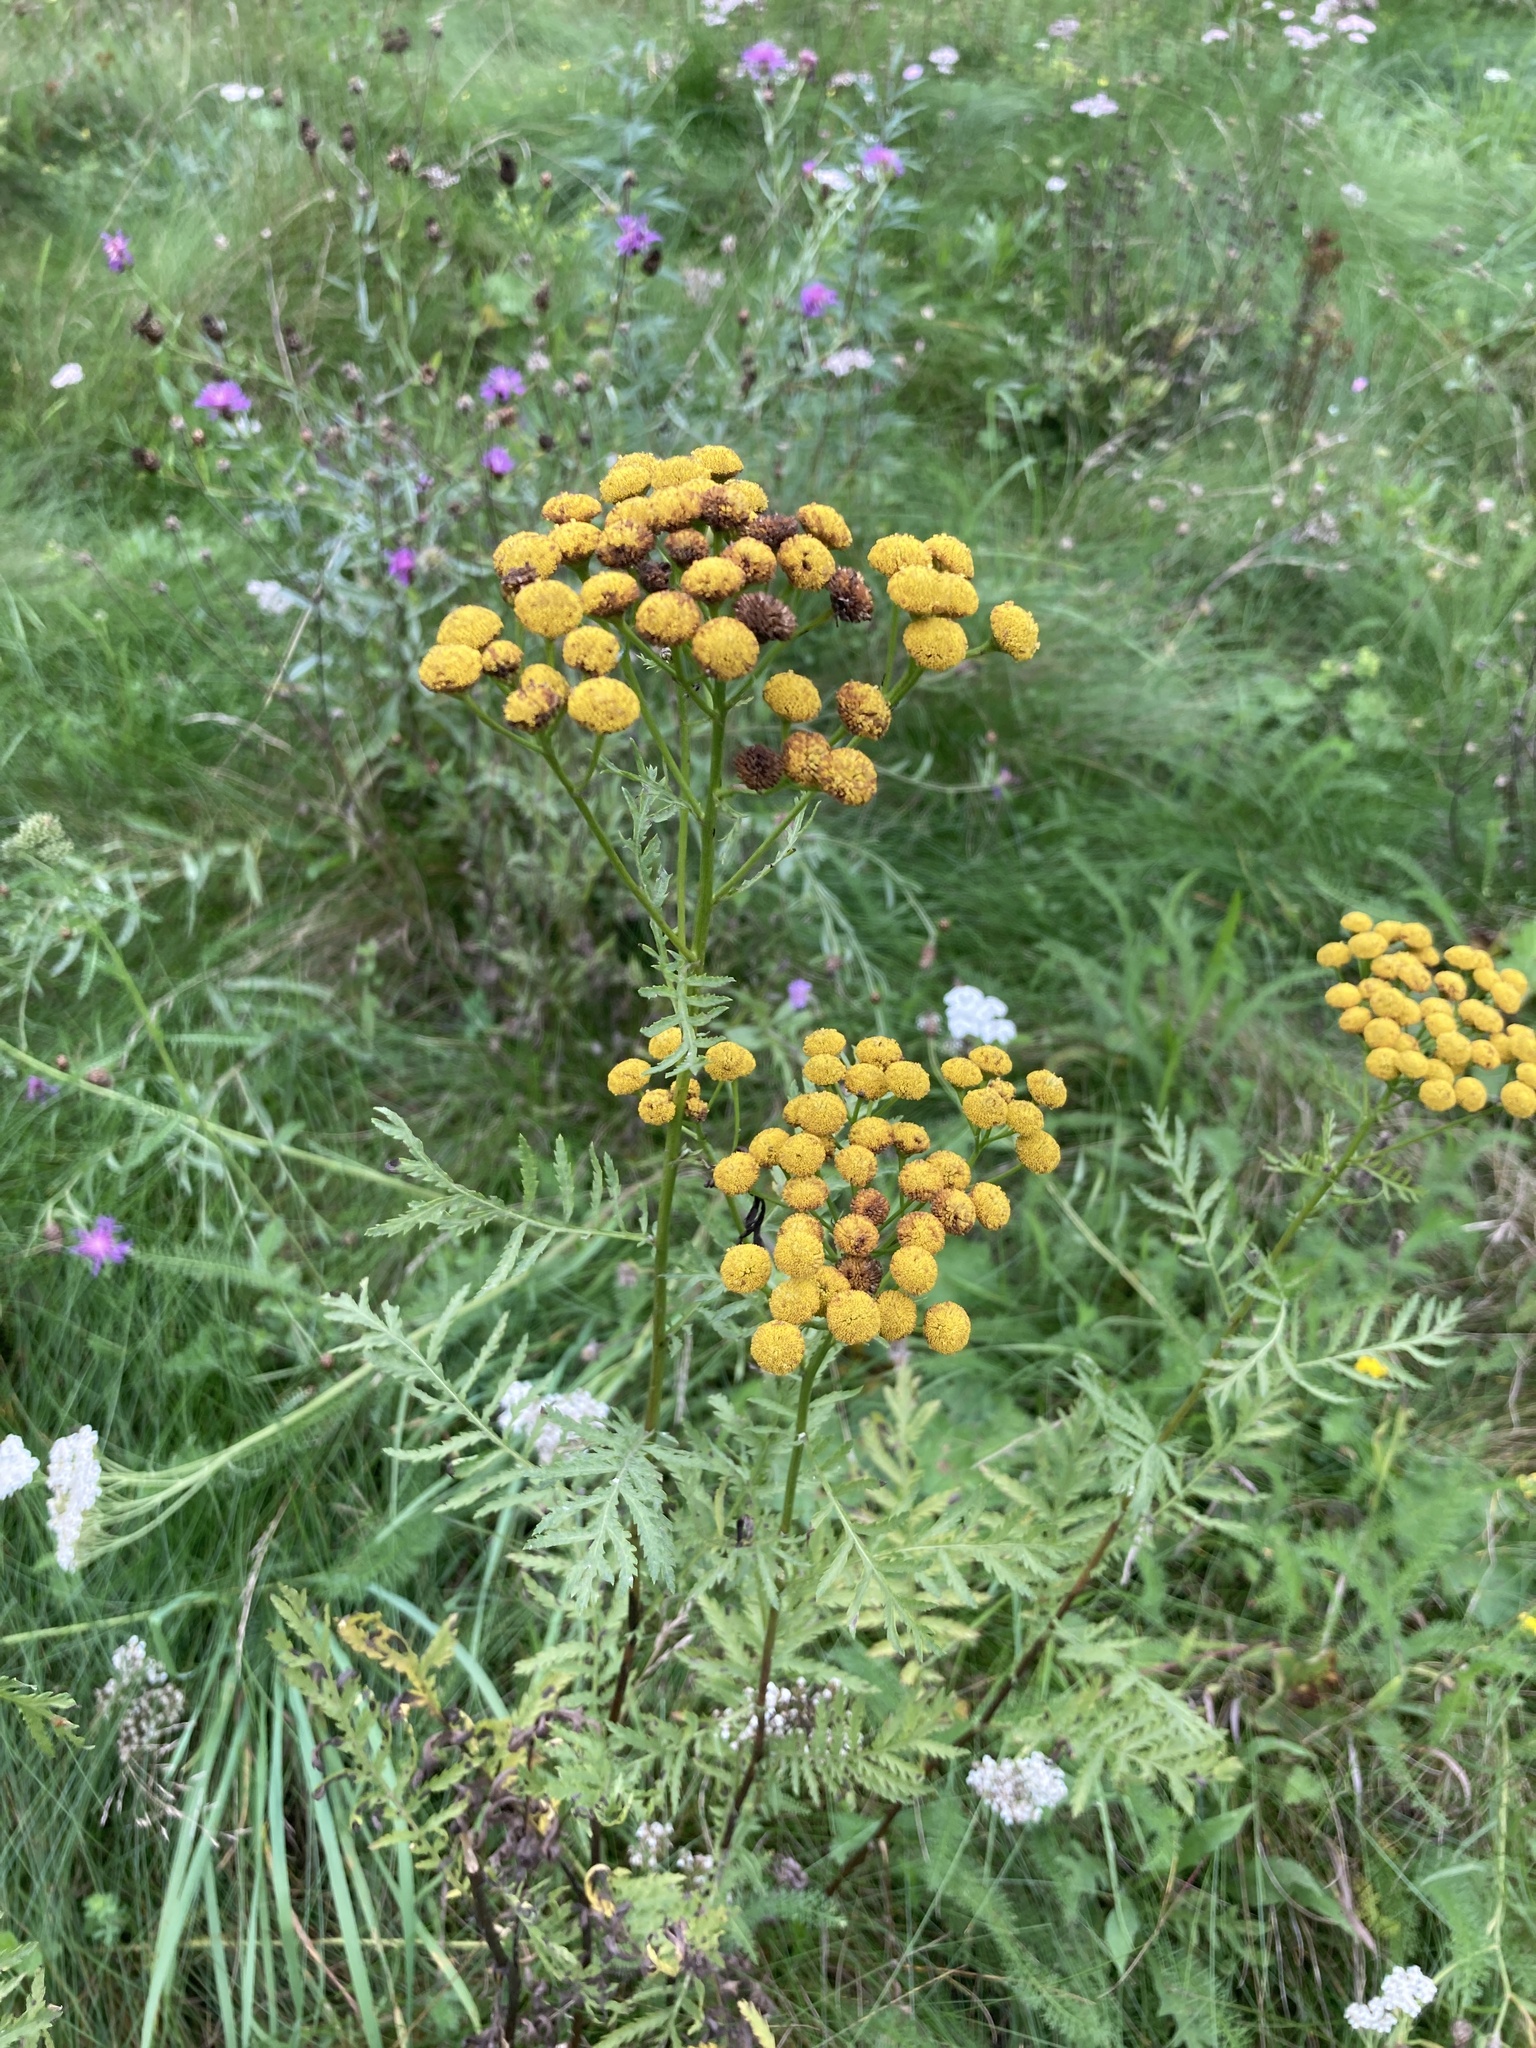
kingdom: Plantae
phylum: Tracheophyta
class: Magnoliopsida
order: Asterales
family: Asteraceae
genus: Tanacetum
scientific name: Tanacetum vulgare
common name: Common tansy
